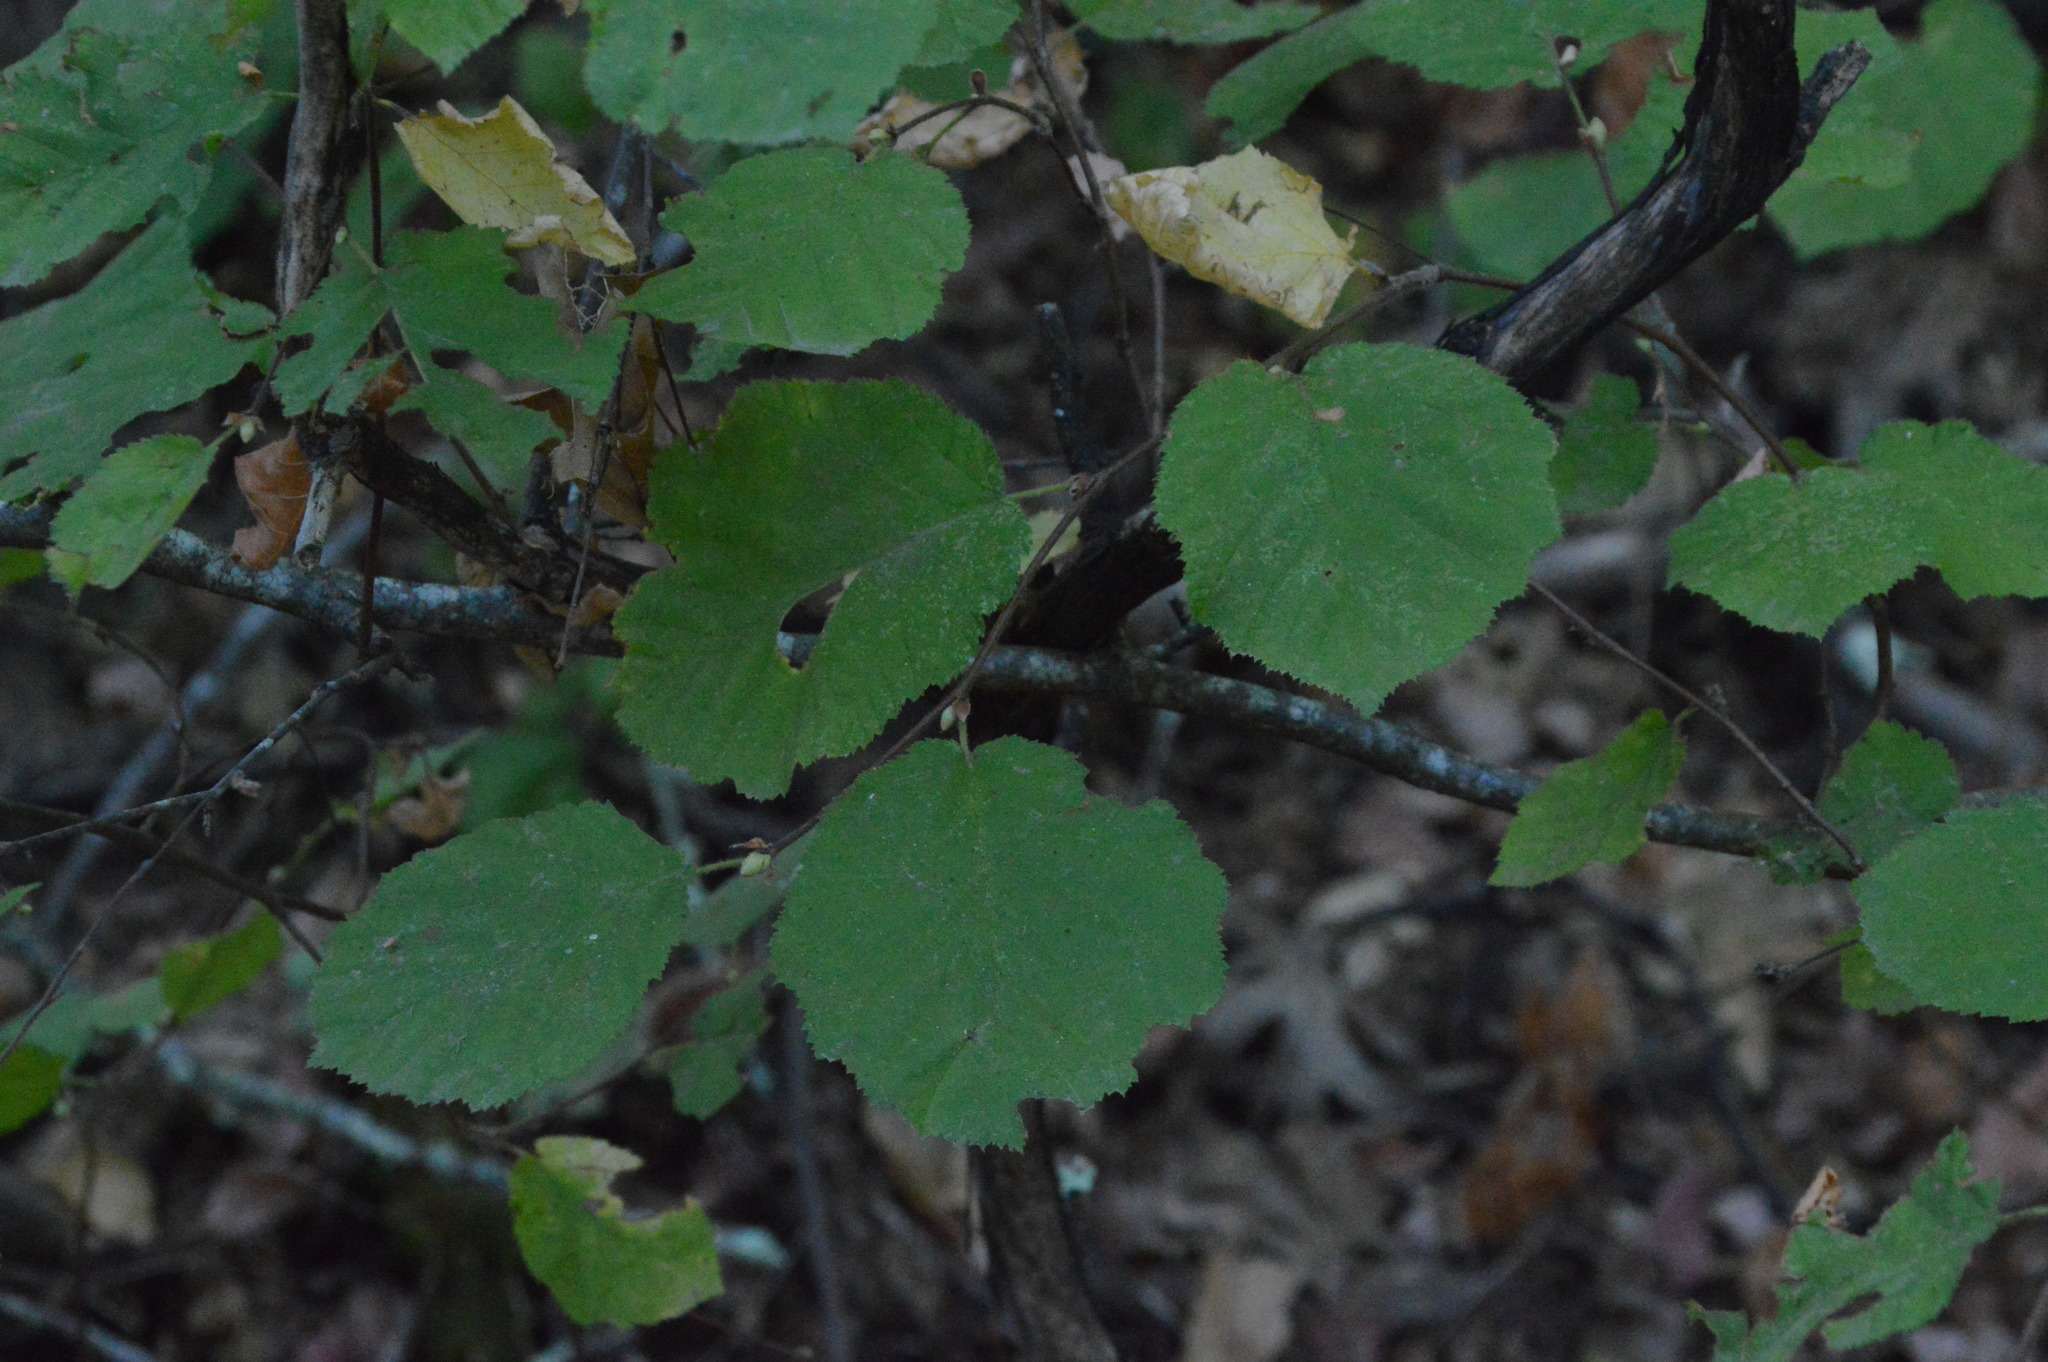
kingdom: Plantae
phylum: Tracheophyta
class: Magnoliopsida
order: Fagales
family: Betulaceae
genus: Corylus
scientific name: Corylus cornuta
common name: Beaked hazel
